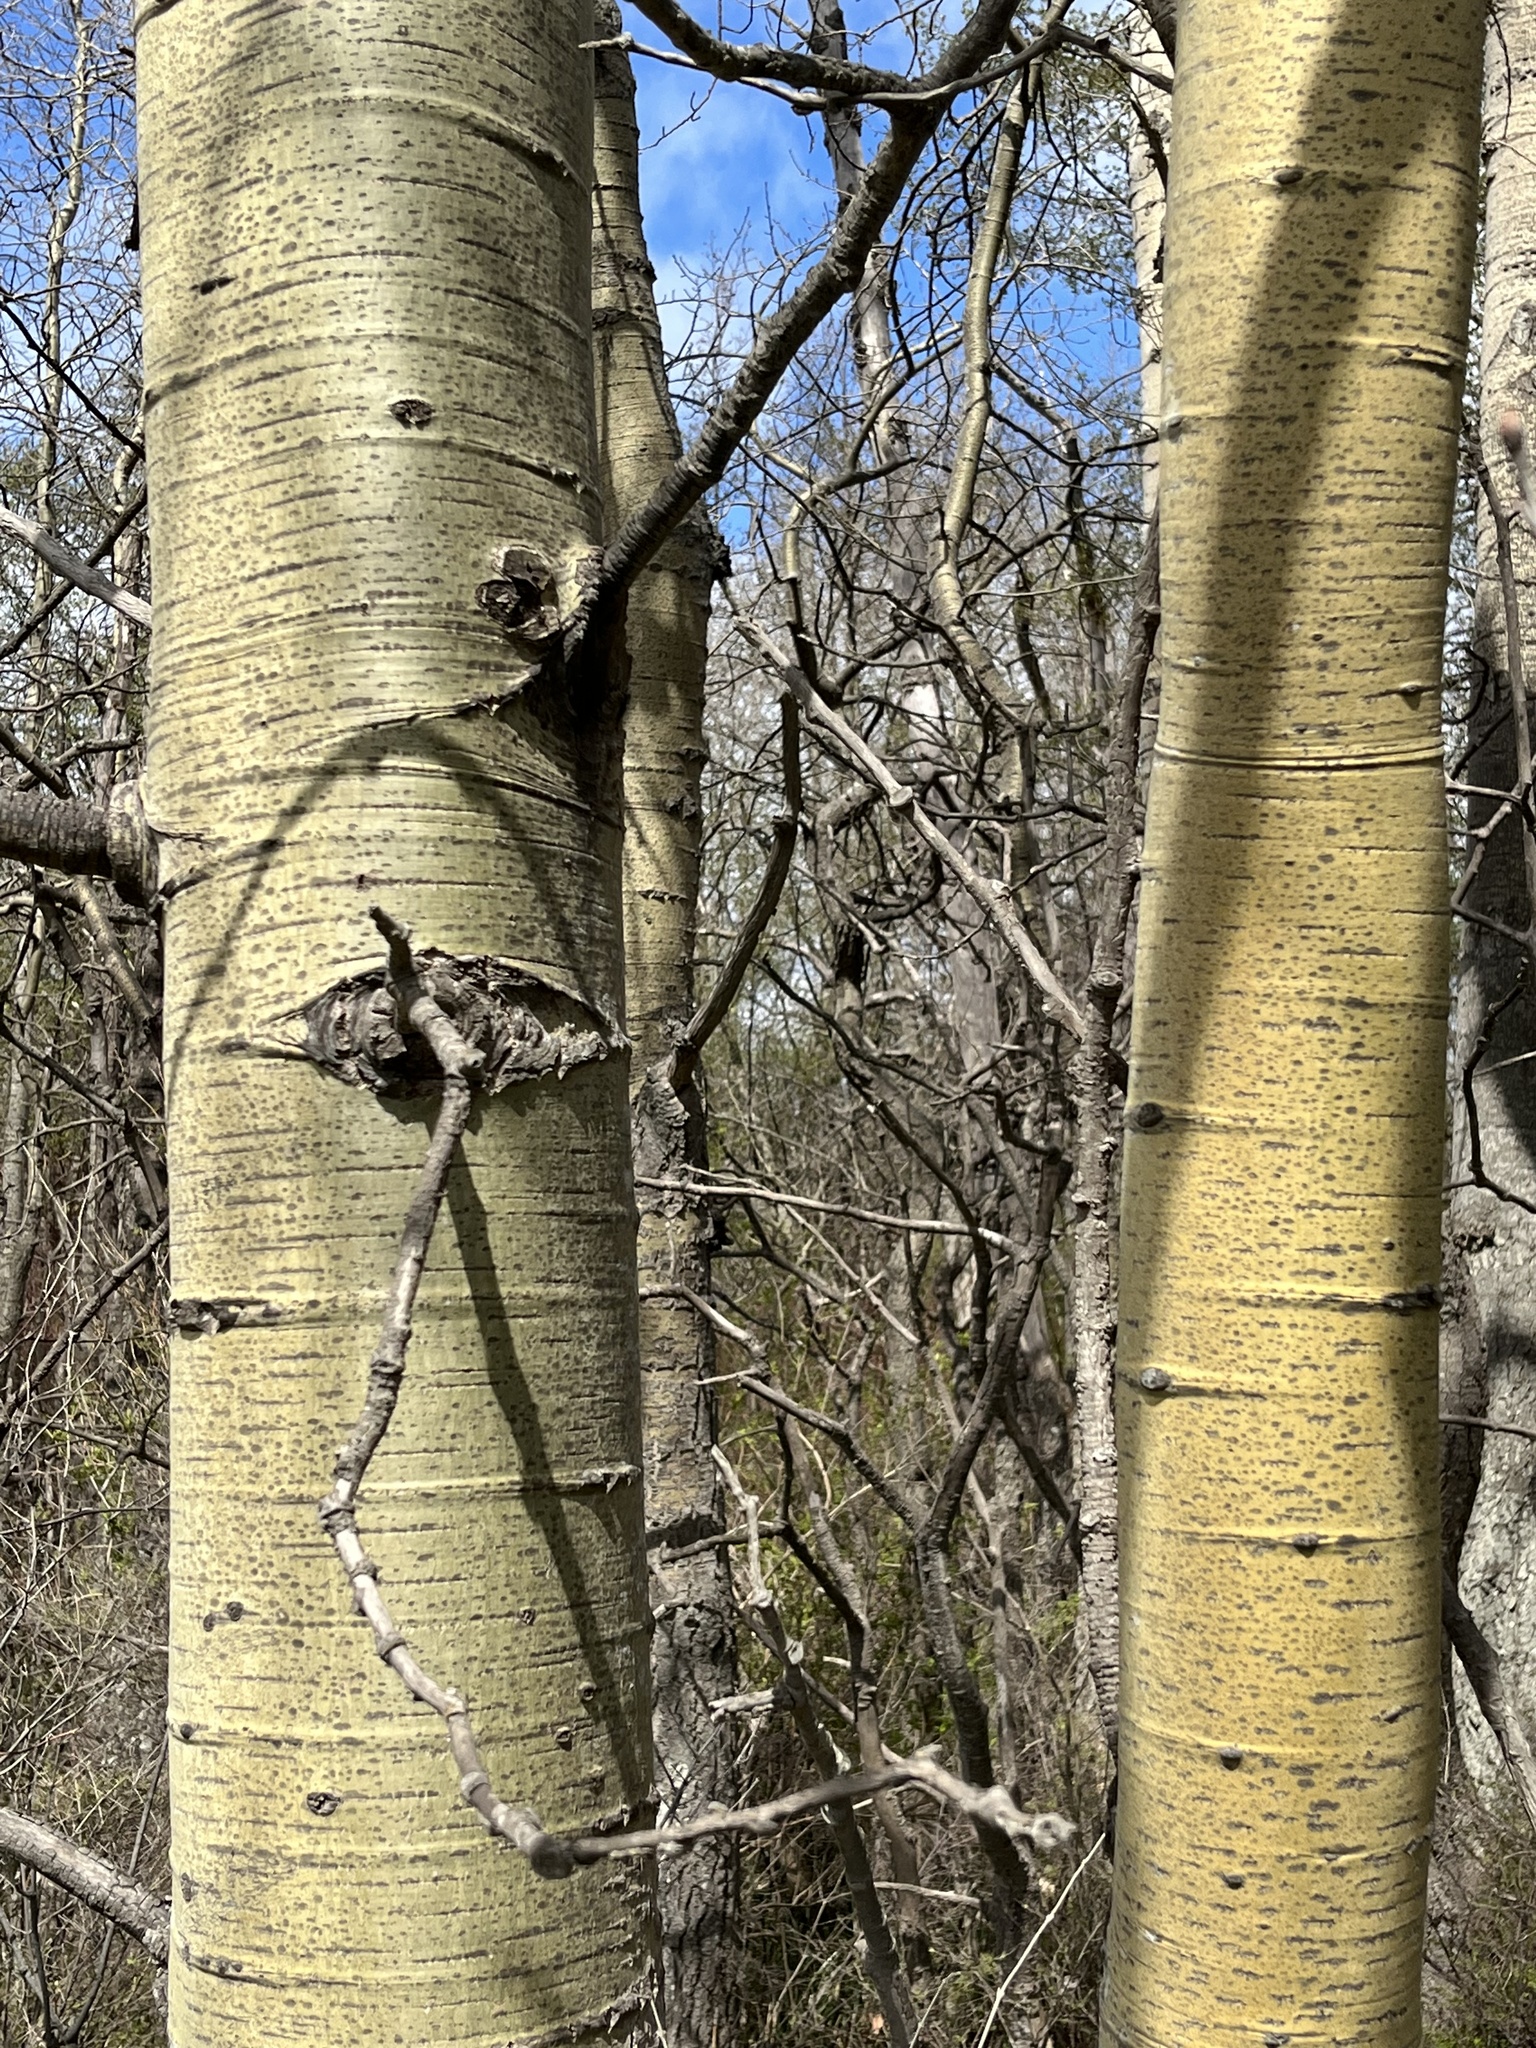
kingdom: Plantae
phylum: Tracheophyta
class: Magnoliopsida
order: Malpighiales
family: Salicaceae
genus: Populus
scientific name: Populus tremuloides
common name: Quaking aspen
